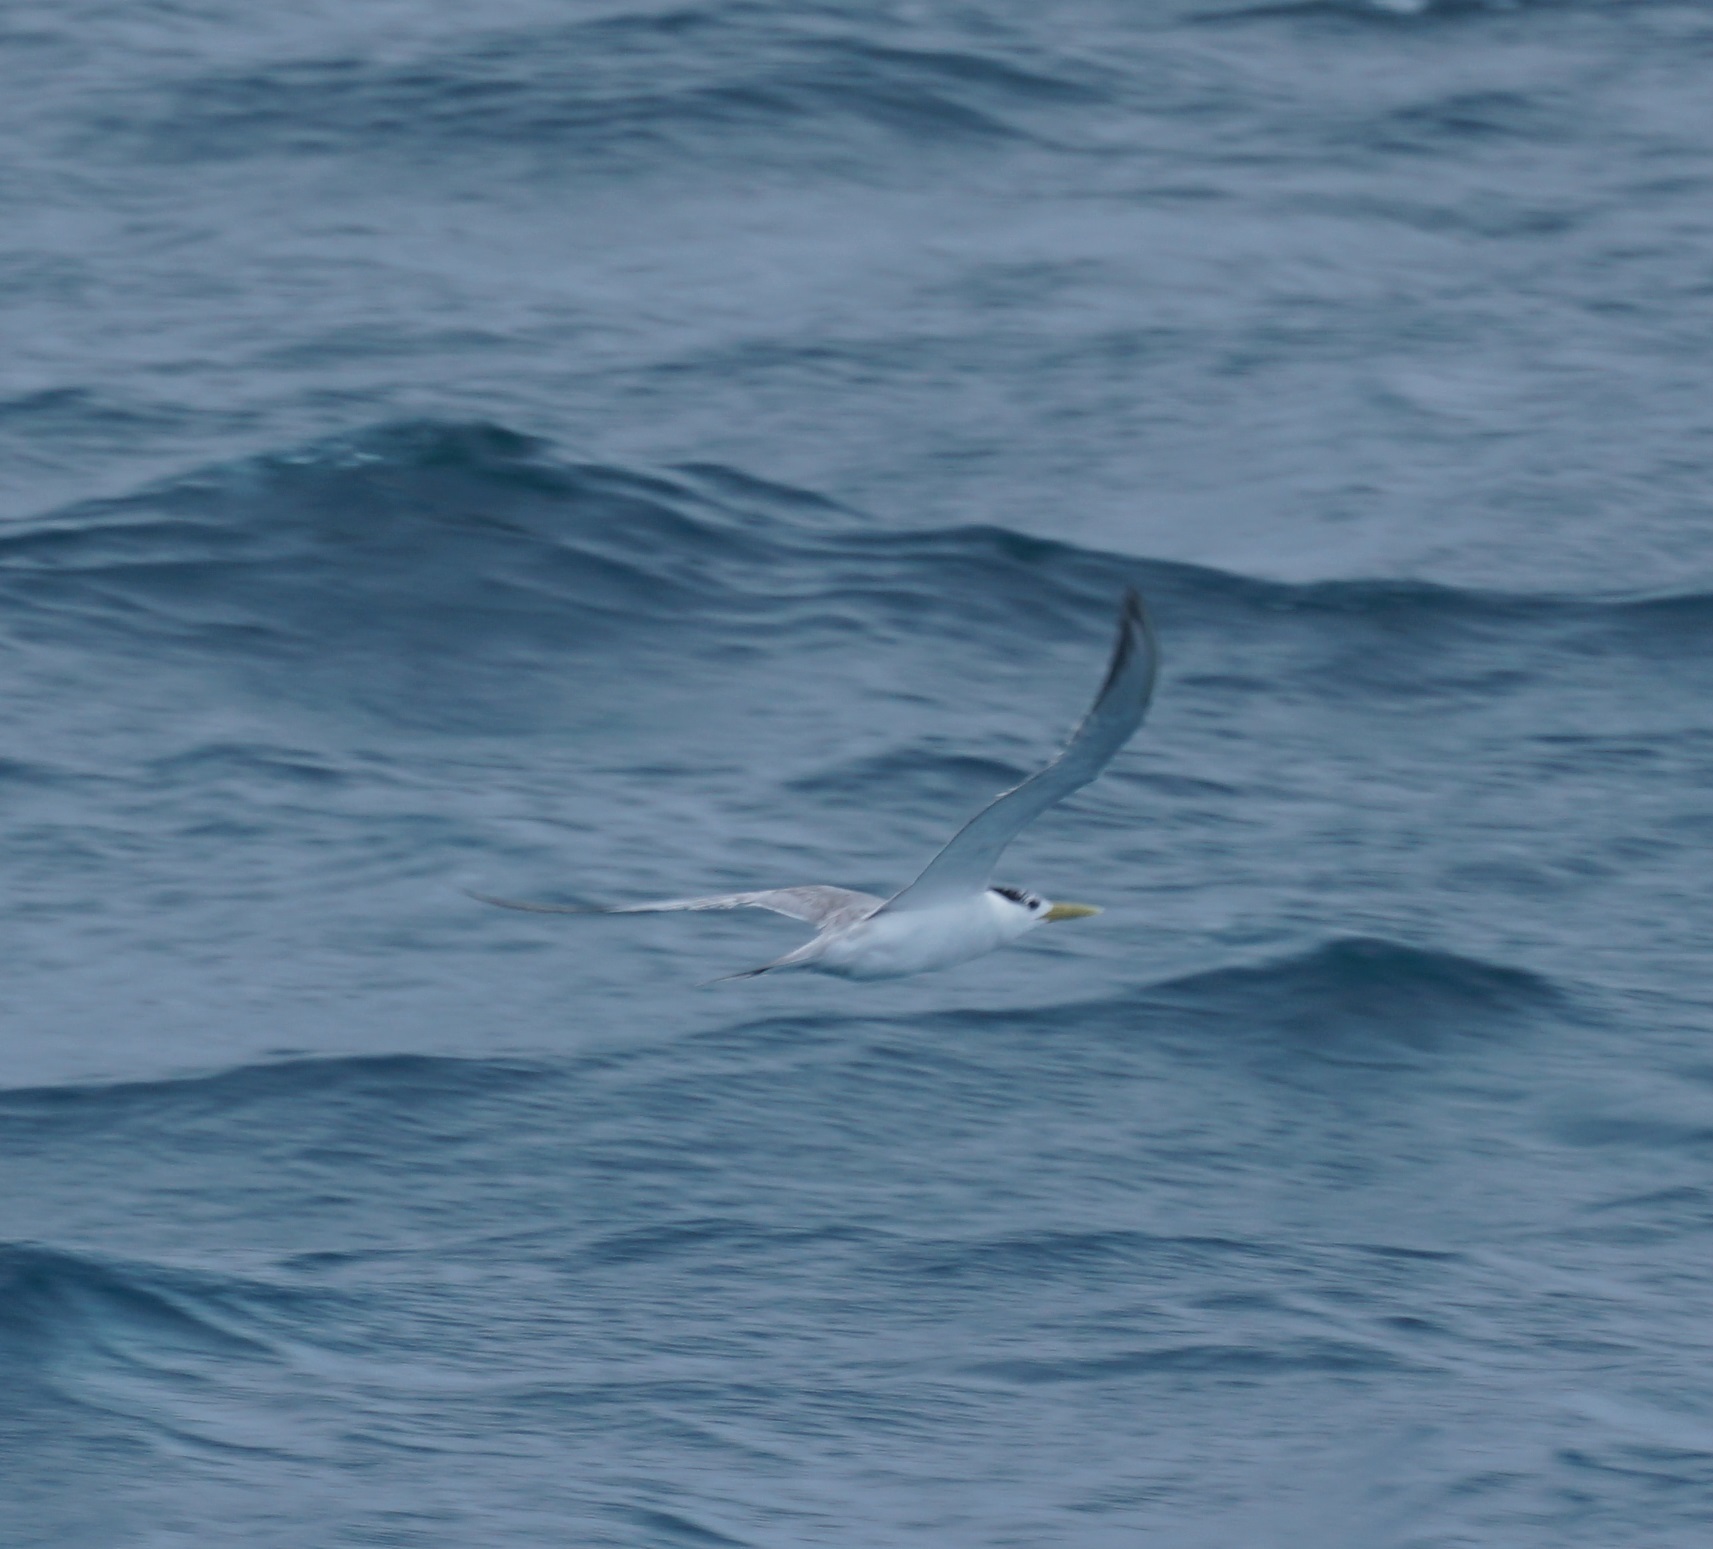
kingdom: Animalia
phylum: Chordata
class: Aves
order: Charadriiformes
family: Laridae
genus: Thalasseus
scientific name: Thalasseus bergii
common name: Greater crested tern
